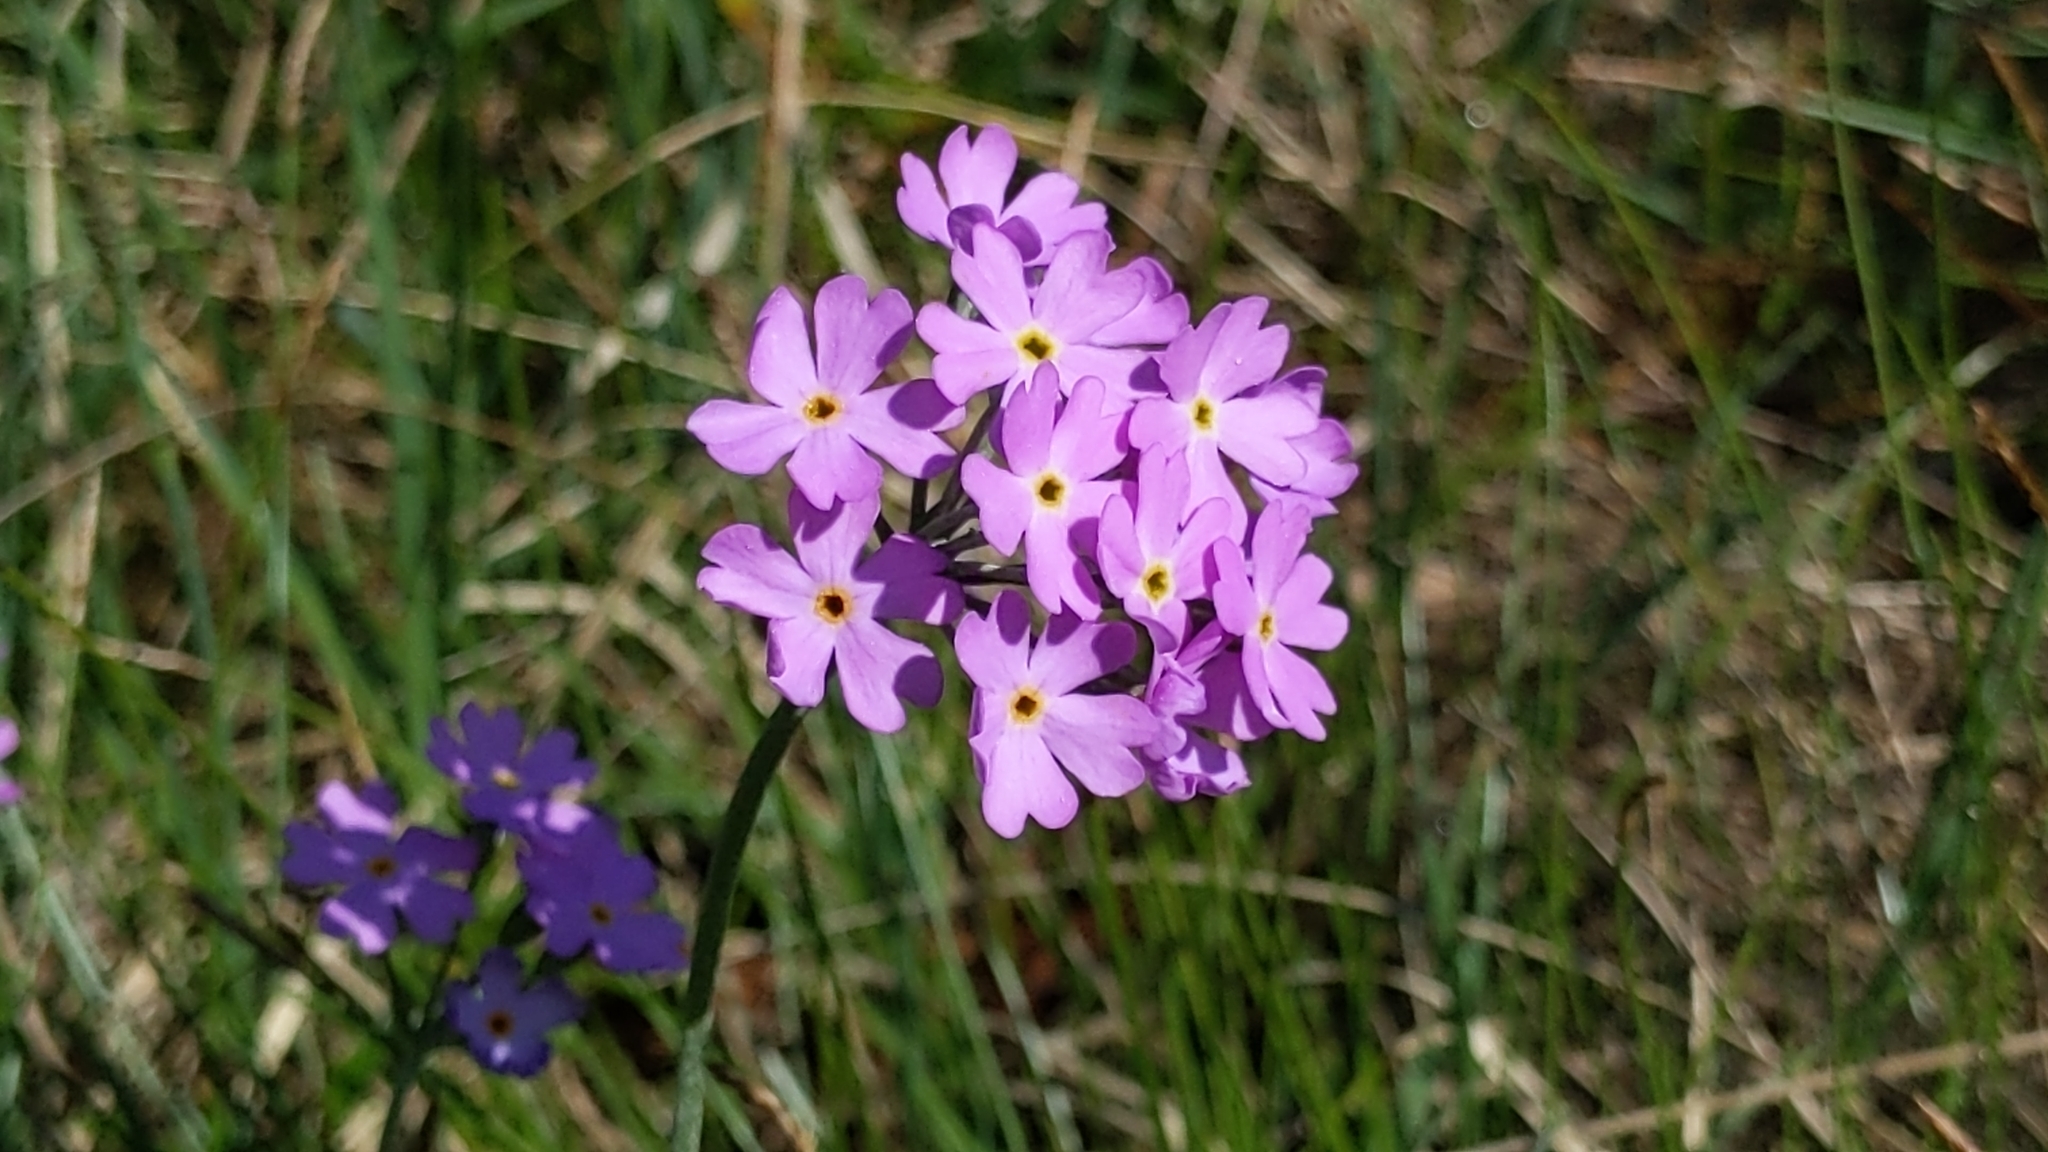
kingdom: Plantae
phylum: Tracheophyta
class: Magnoliopsida
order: Ericales
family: Primulaceae
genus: Primula
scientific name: Primula farinosa
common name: Bird's-eye primrose
